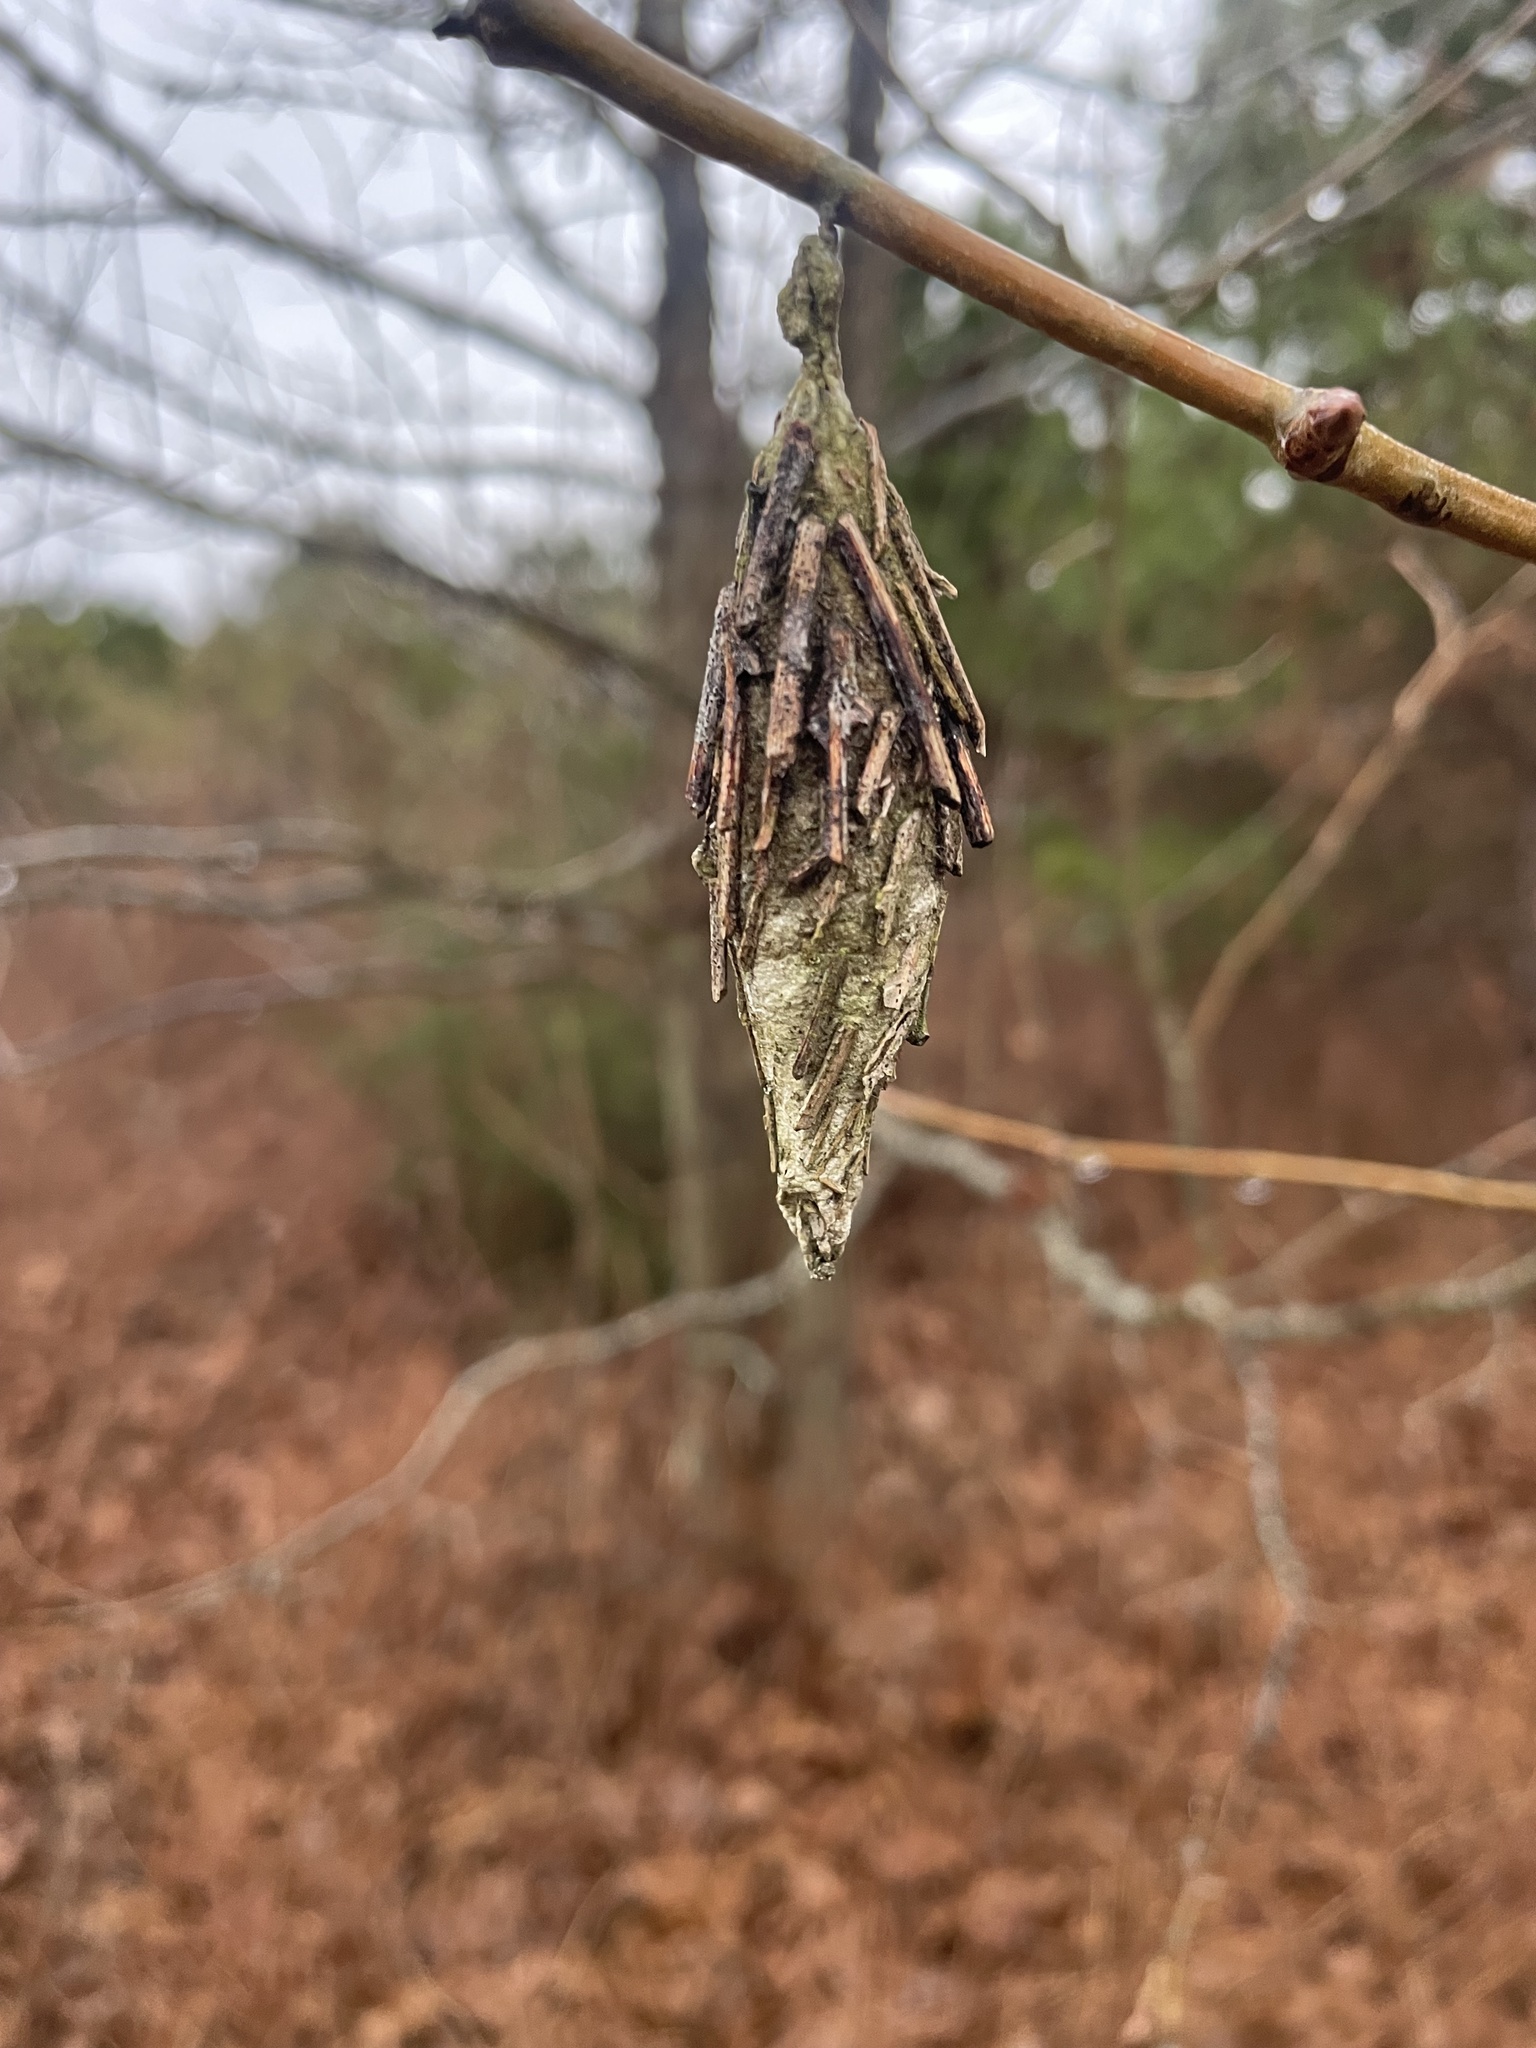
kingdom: Animalia
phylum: Arthropoda
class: Insecta
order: Lepidoptera
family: Psychidae
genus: Thyridopteryx
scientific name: Thyridopteryx ephemeraeformis
